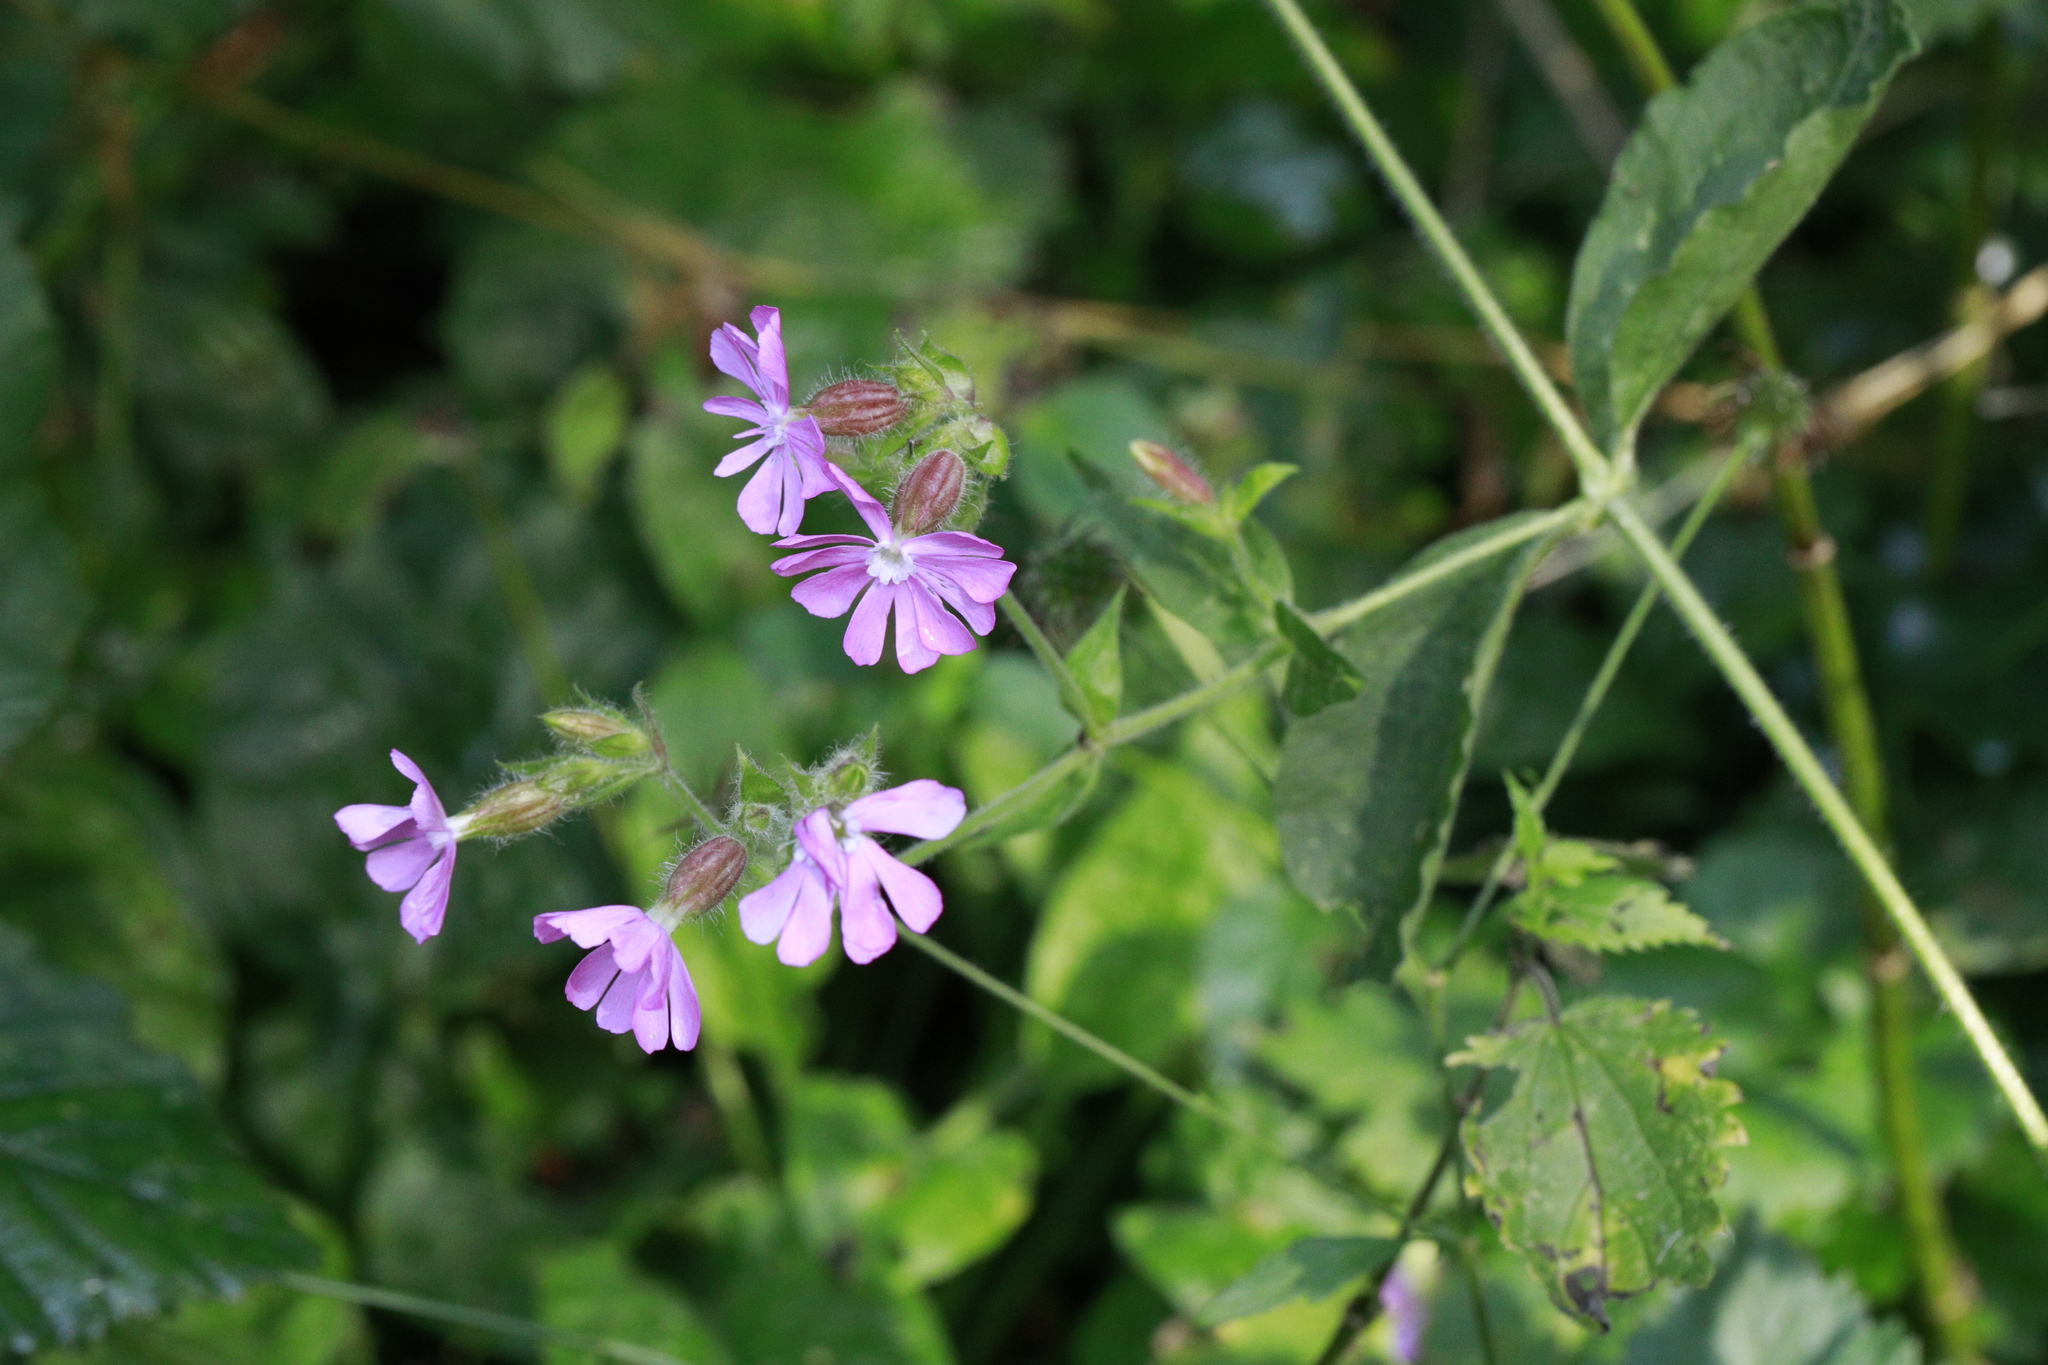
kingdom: Plantae
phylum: Tracheophyta
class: Magnoliopsida
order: Caryophyllales
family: Caryophyllaceae
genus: Silene
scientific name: Silene dioica
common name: Red campion
